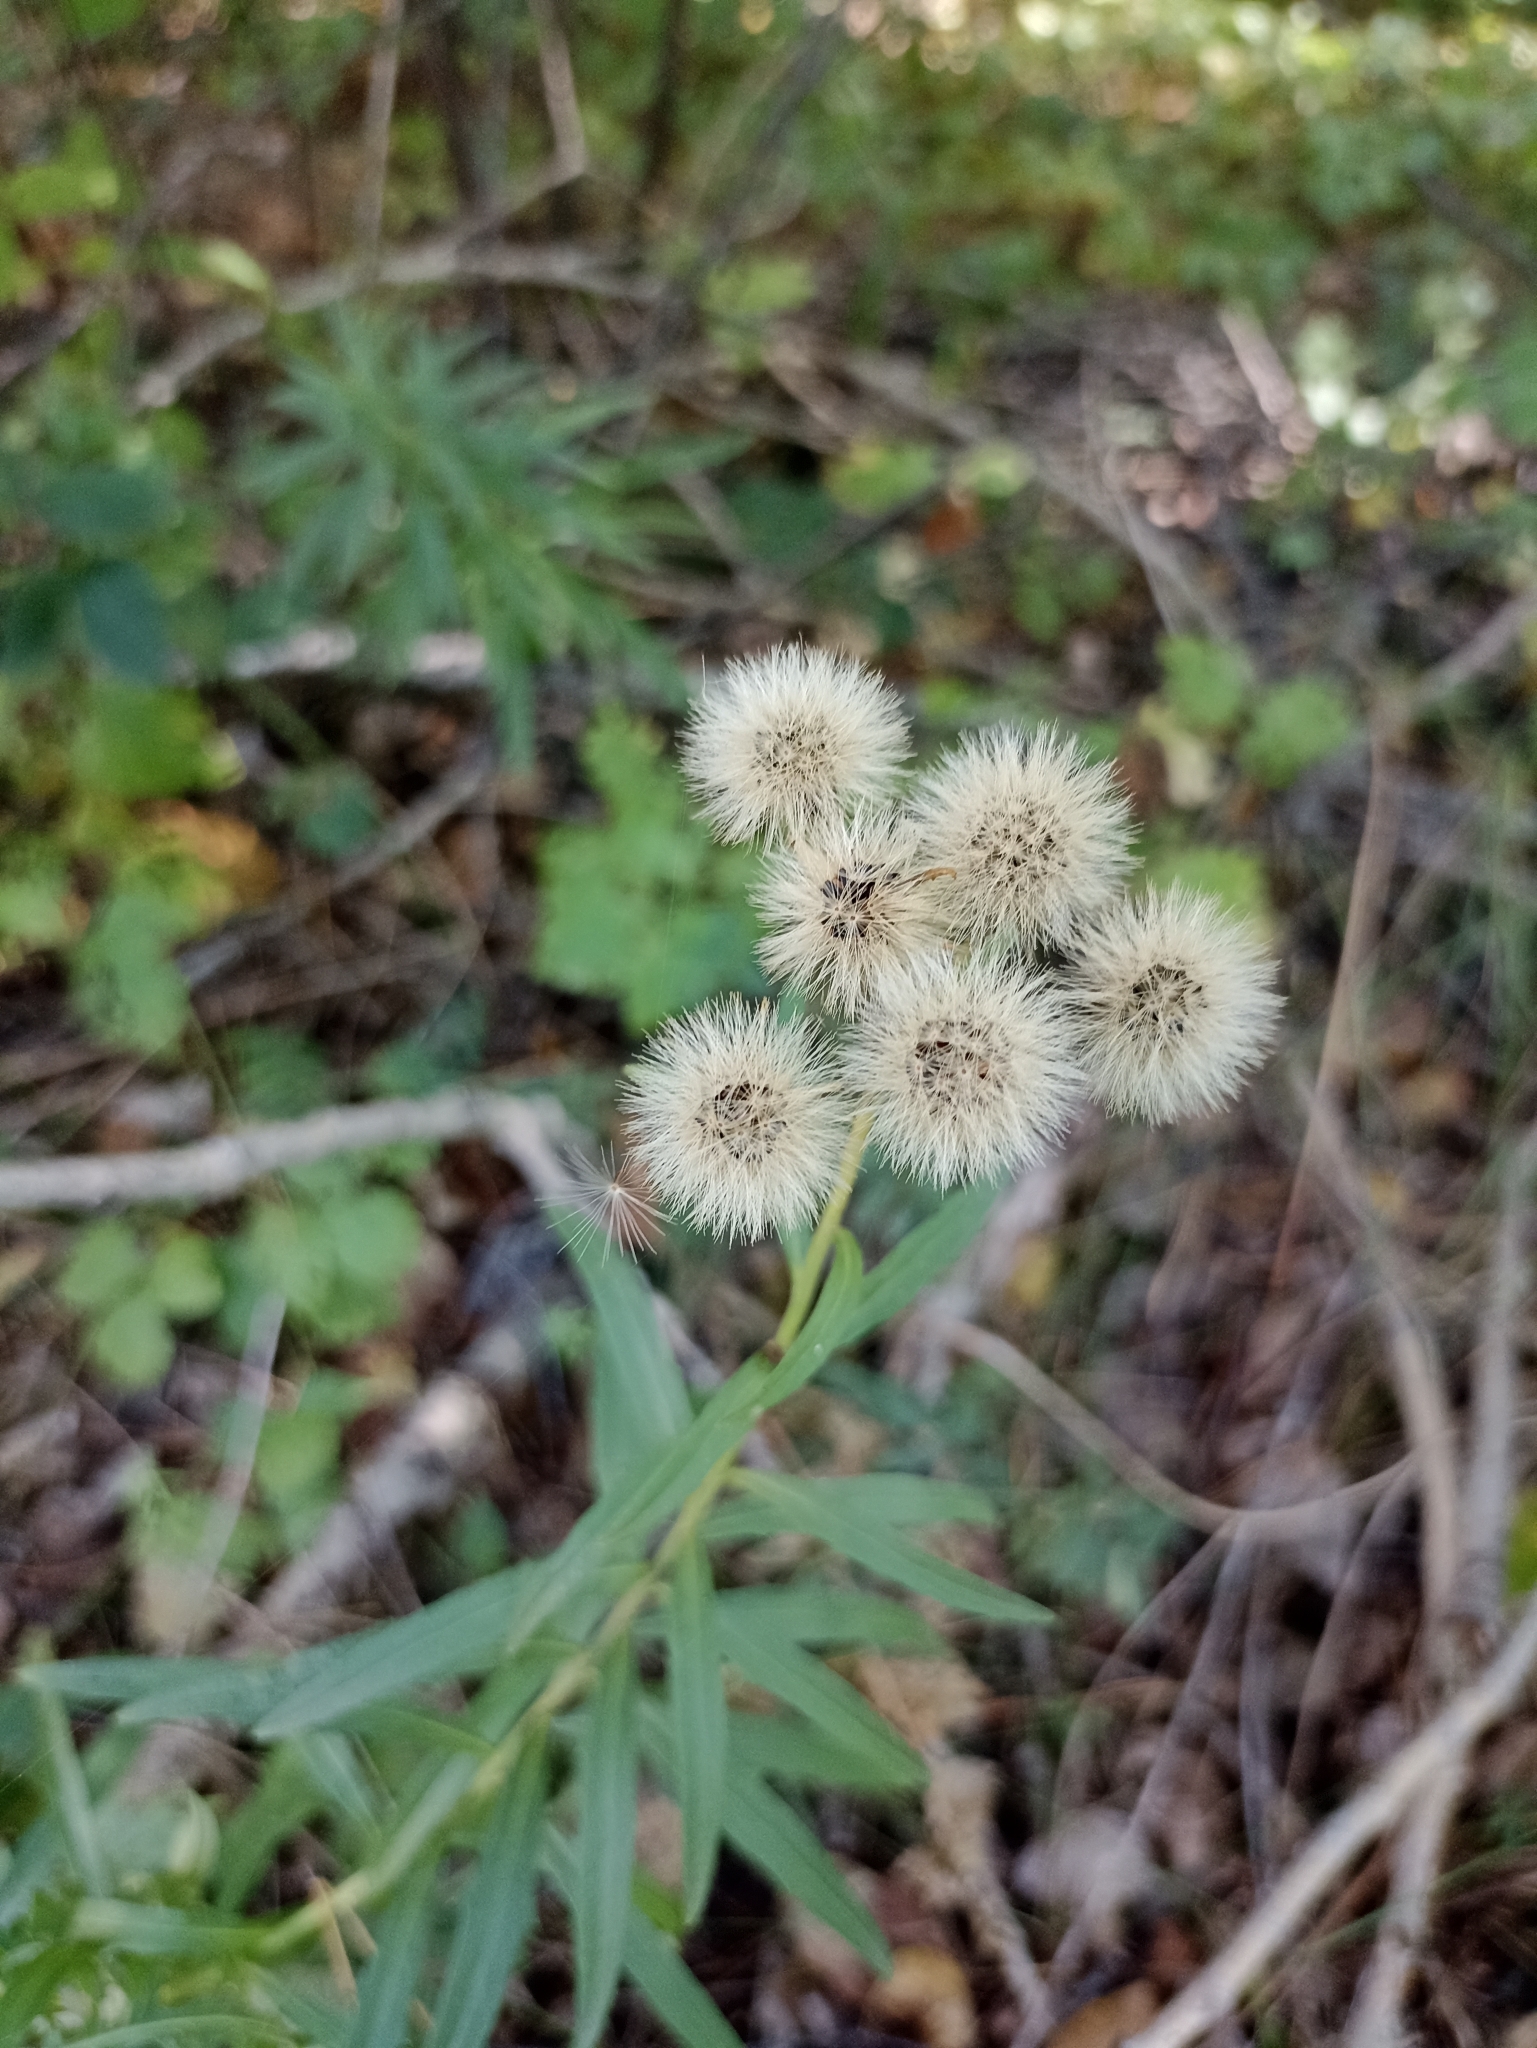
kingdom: Plantae
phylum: Tracheophyta
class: Magnoliopsida
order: Asterales
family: Asteraceae
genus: Hieracium
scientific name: Hieracium umbellatum
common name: Northern hawkweed
